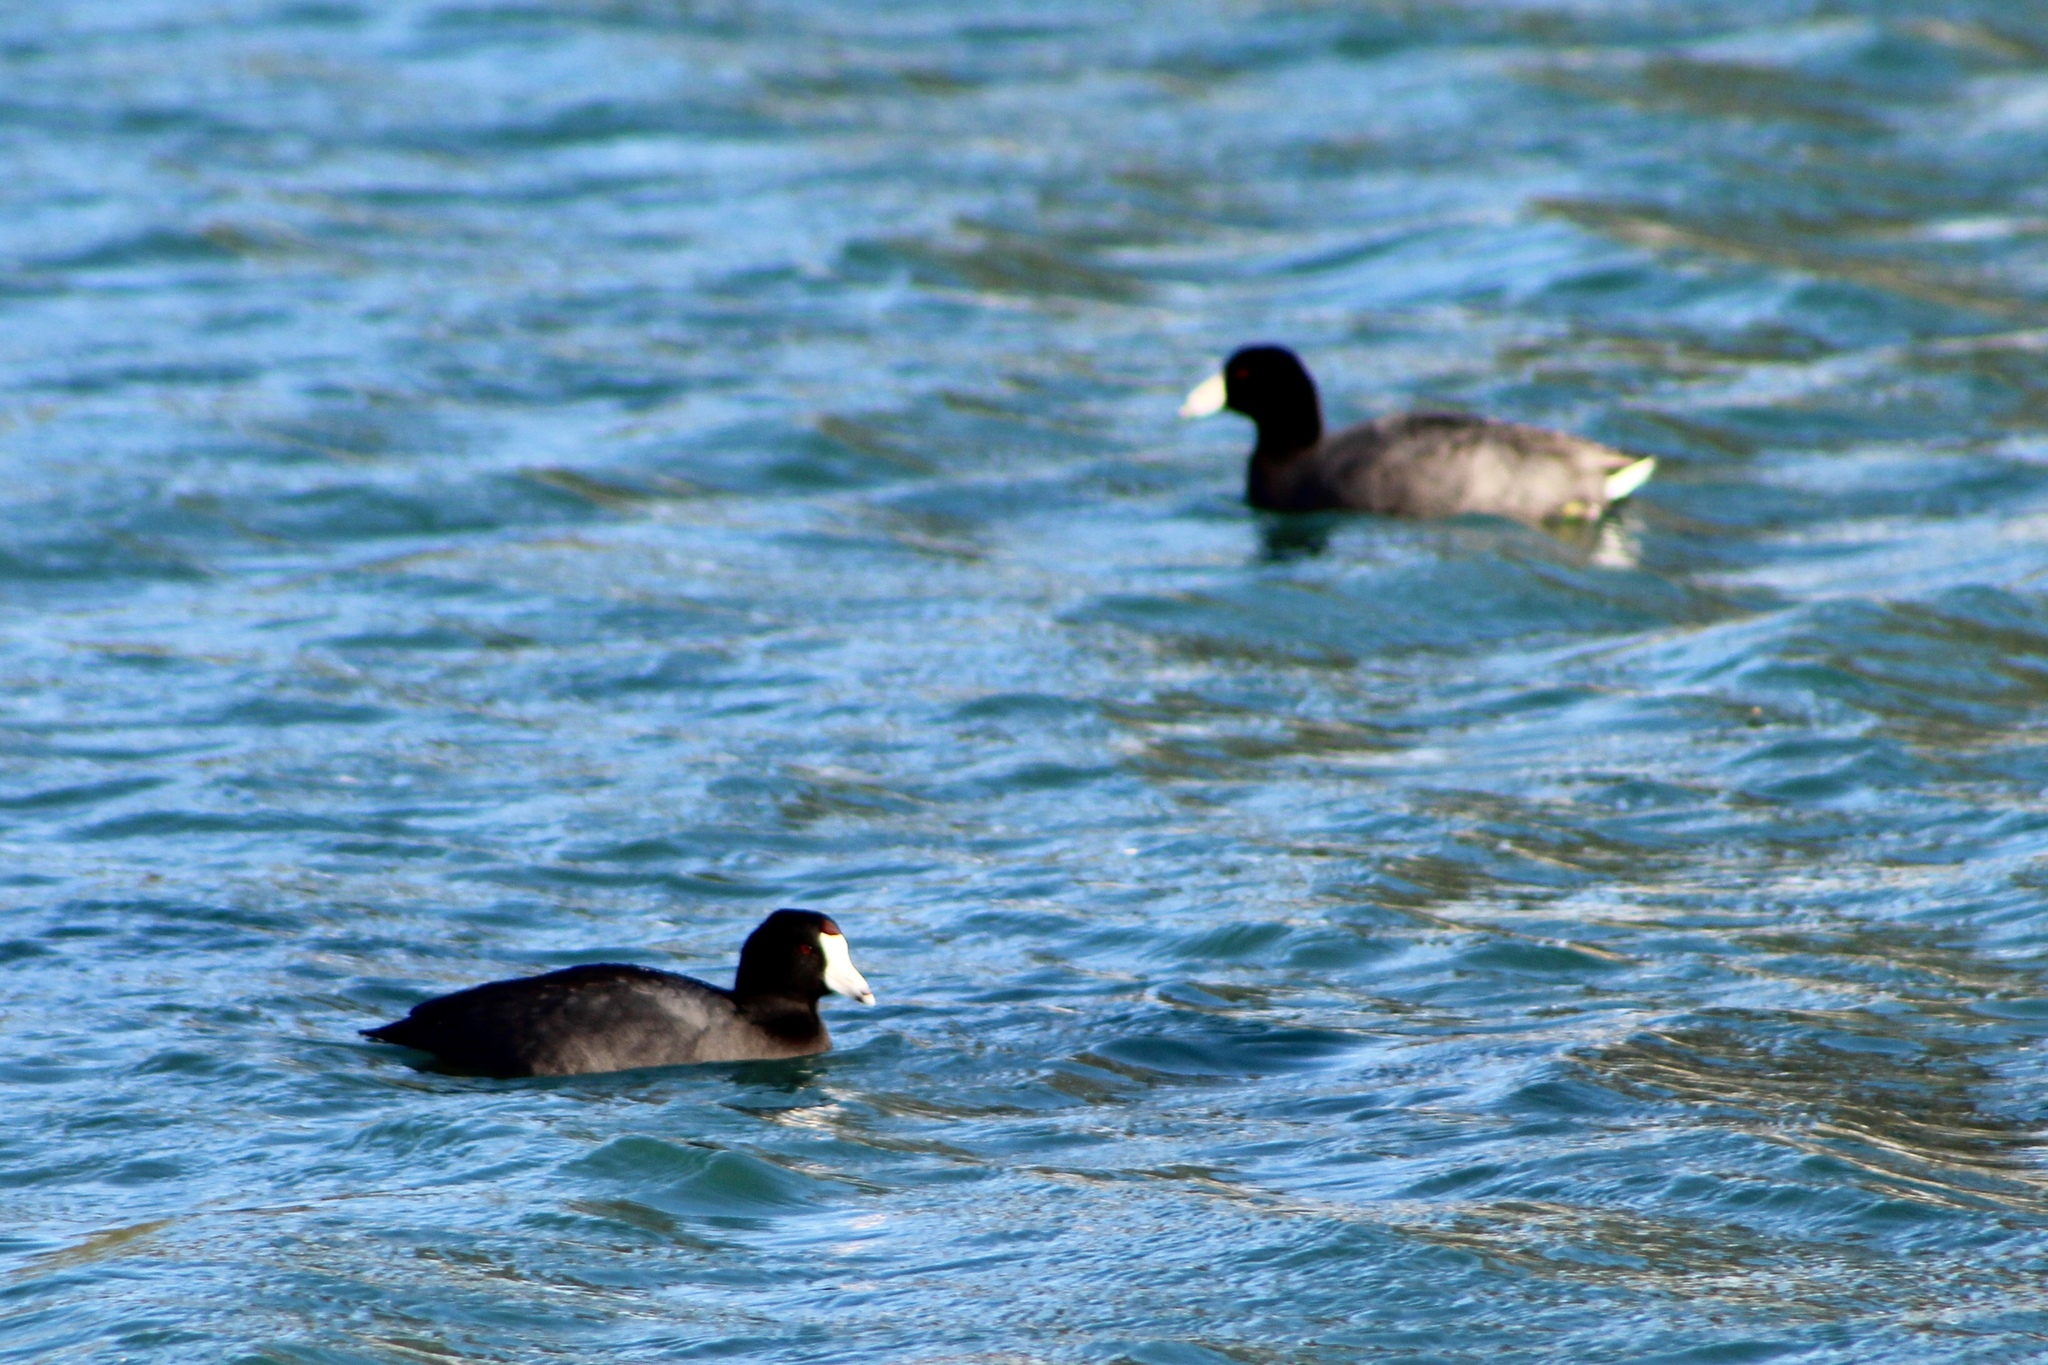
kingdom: Animalia
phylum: Chordata
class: Aves
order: Gruiformes
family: Rallidae
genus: Fulica
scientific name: Fulica americana
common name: American coot
